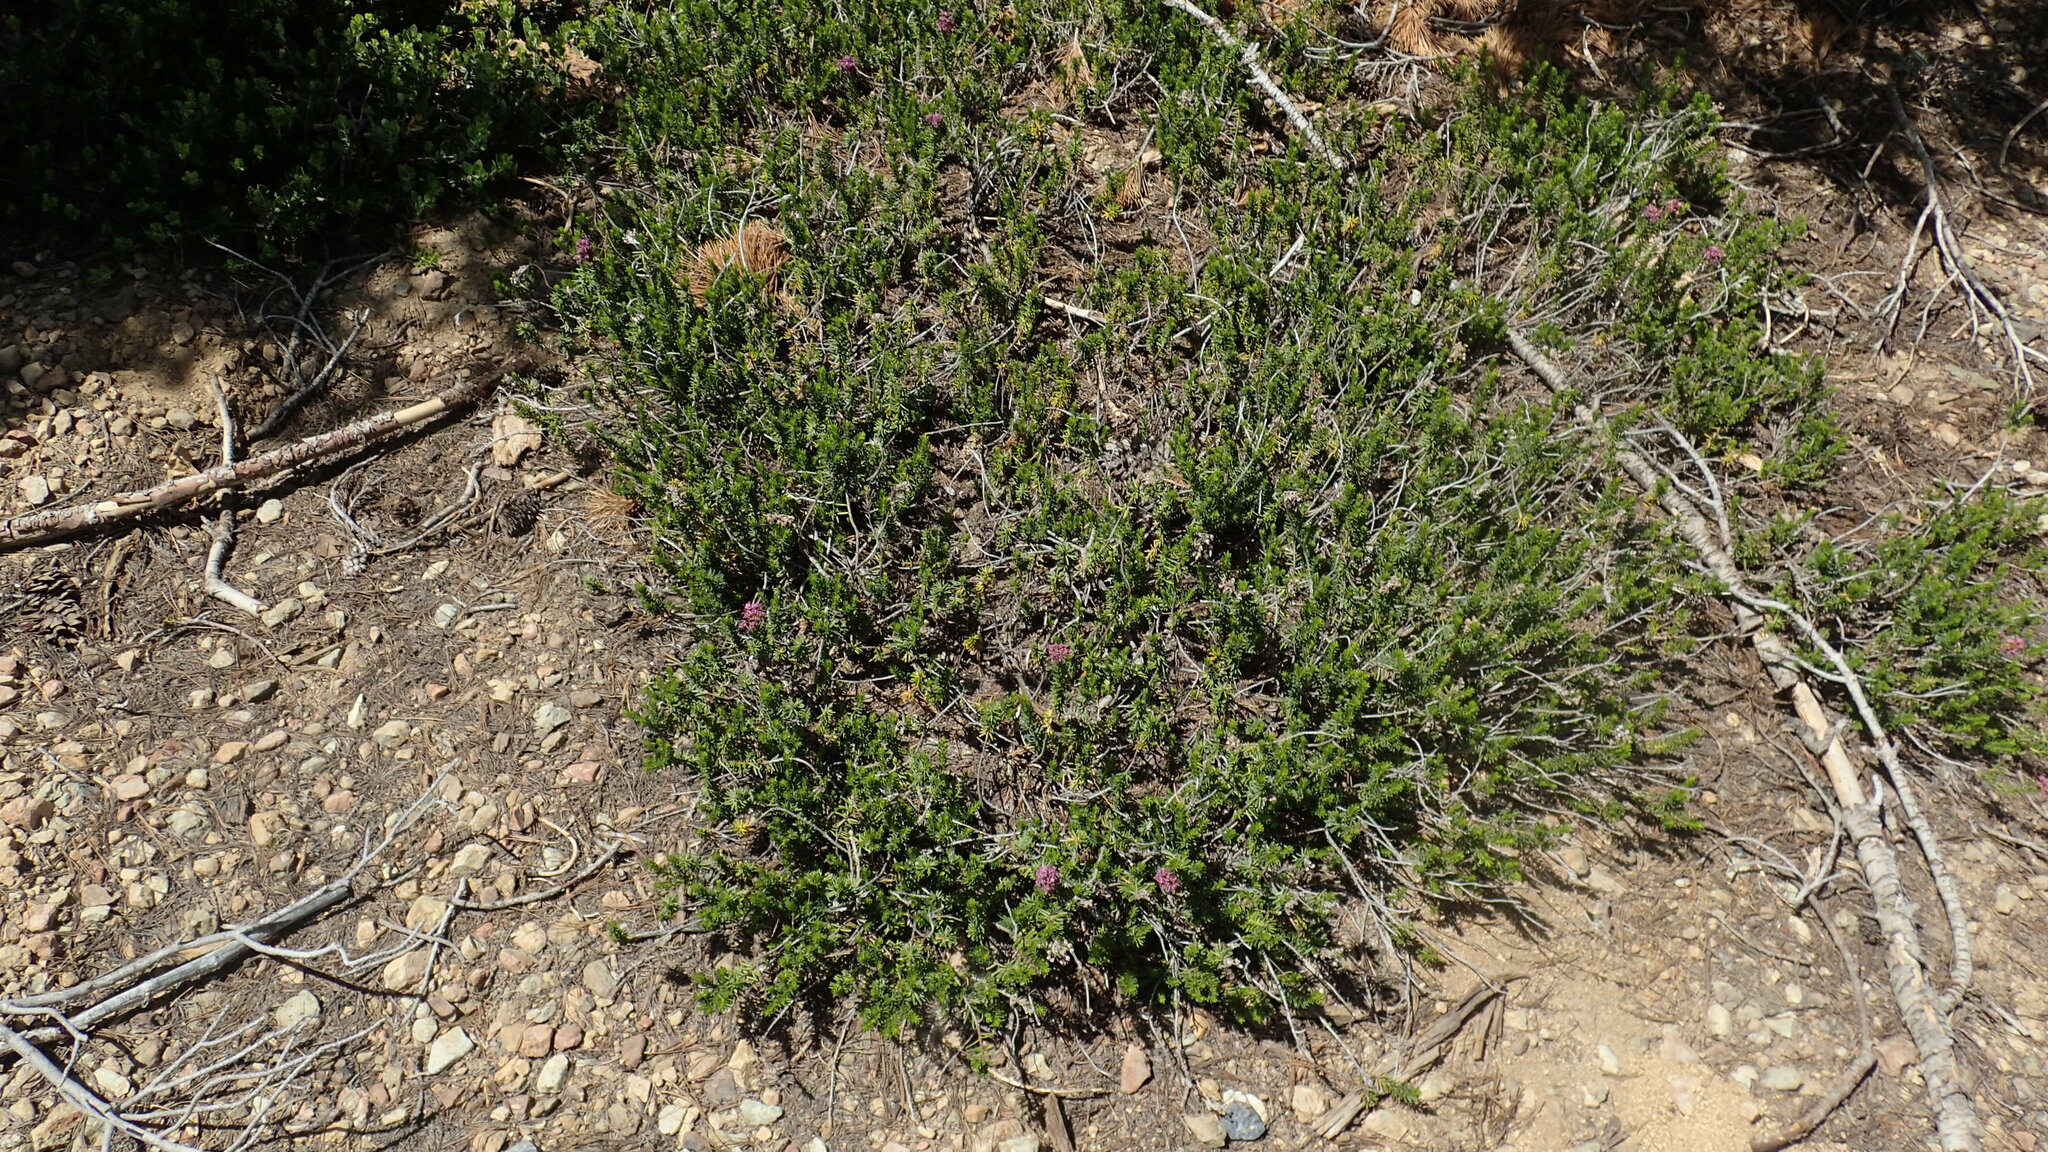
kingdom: Plantae
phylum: Tracheophyta
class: Magnoliopsida
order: Ericales
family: Ericaceae
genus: Phyllodoce
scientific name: Phyllodoce breweri
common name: Brewer's mountain-heather
